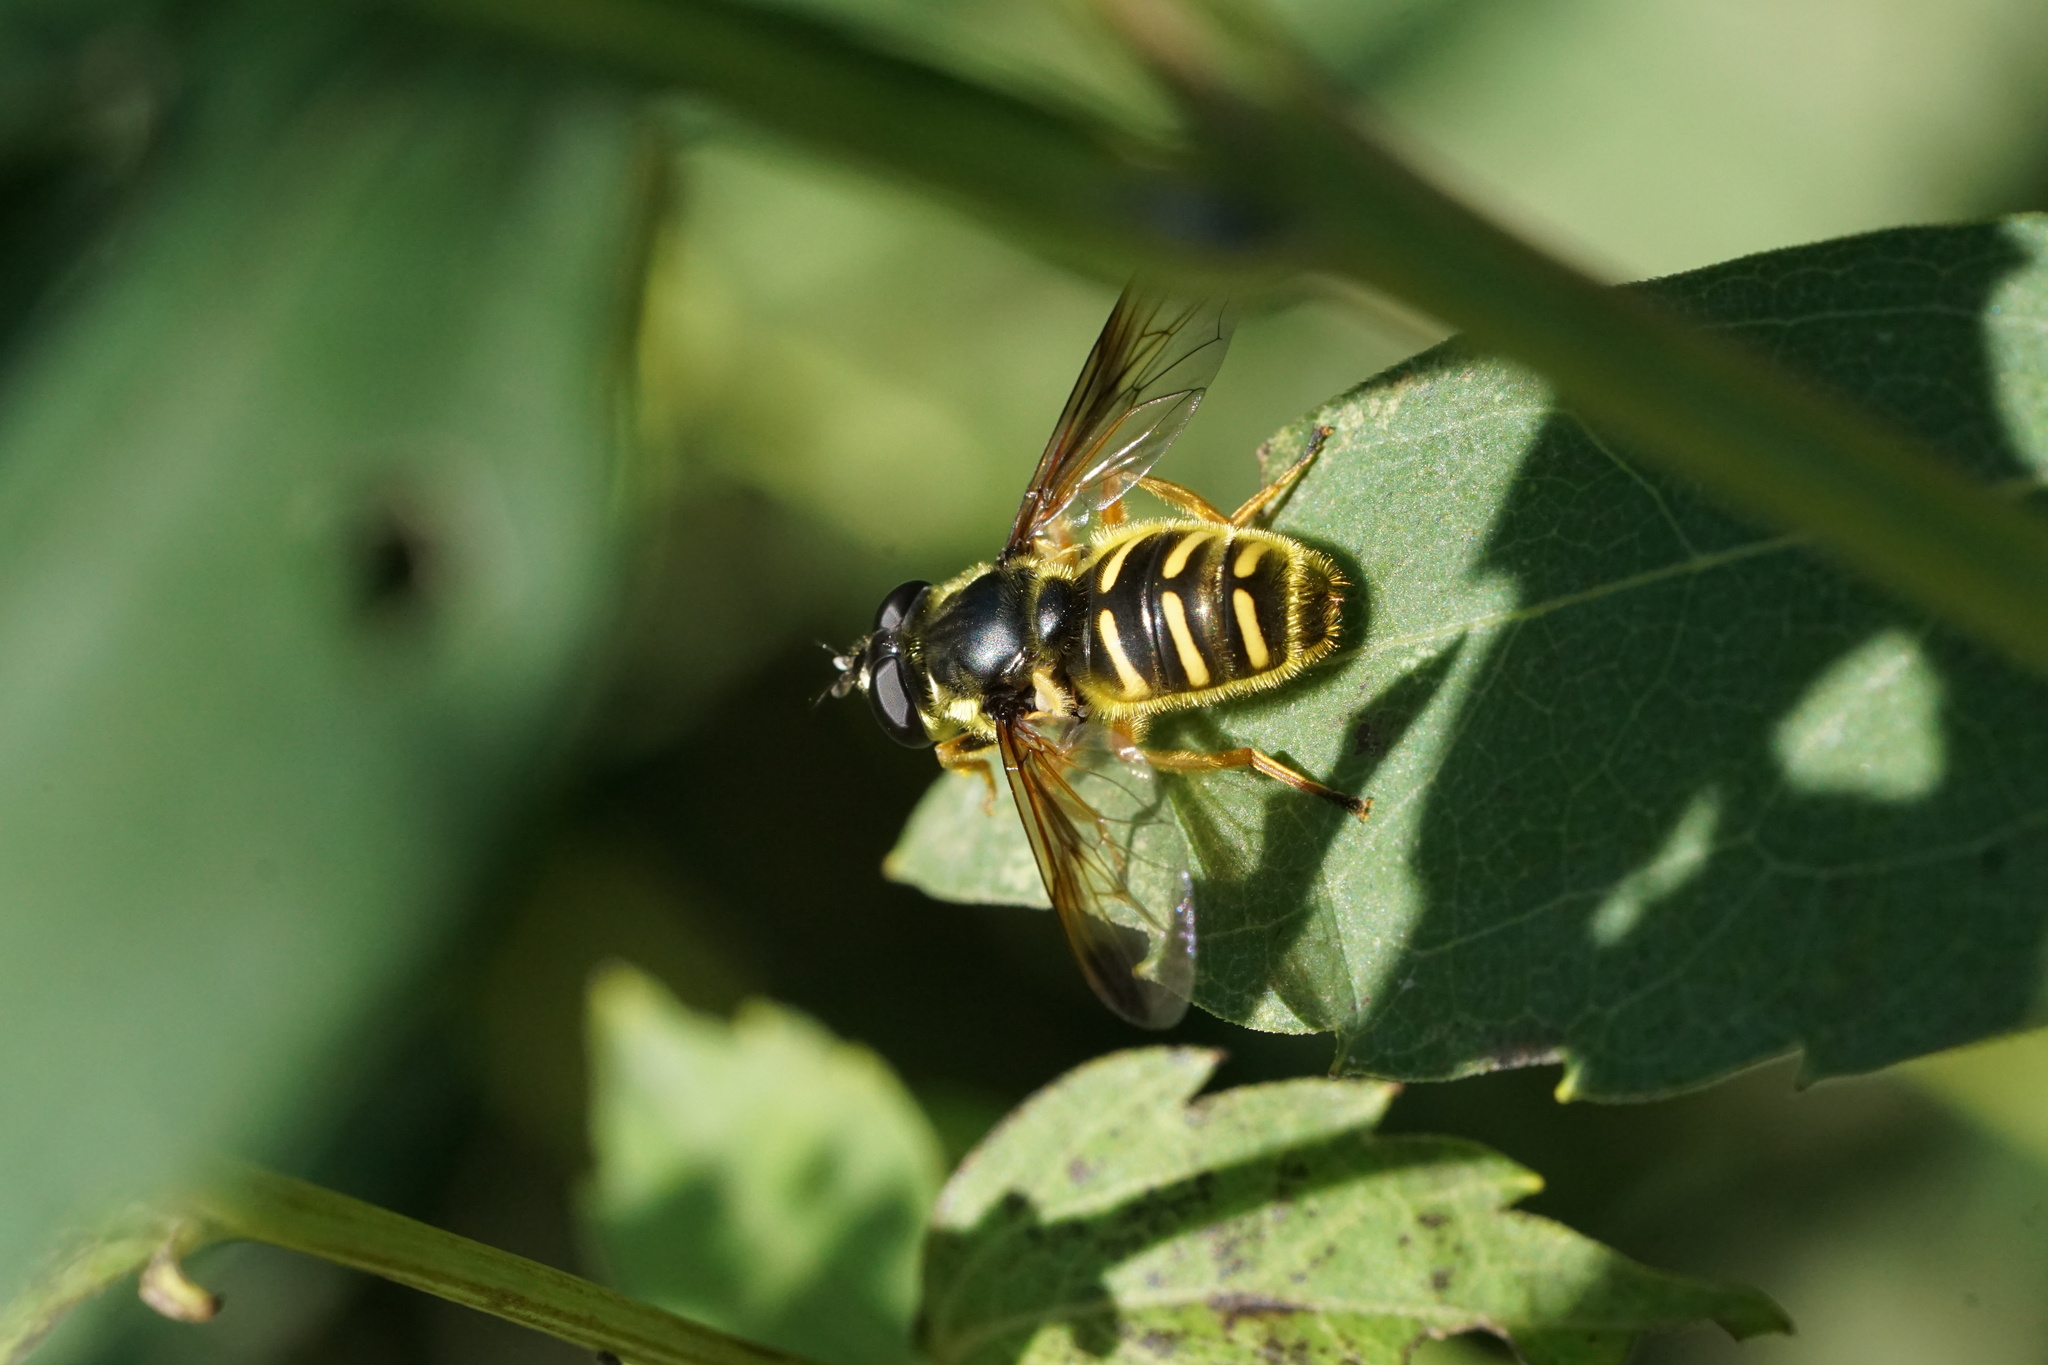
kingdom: Animalia
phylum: Arthropoda
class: Insecta
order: Diptera
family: Syrphidae
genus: Sericomyia
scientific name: Sericomyia chrysotoxoides
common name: Oblique-banded pond fly
